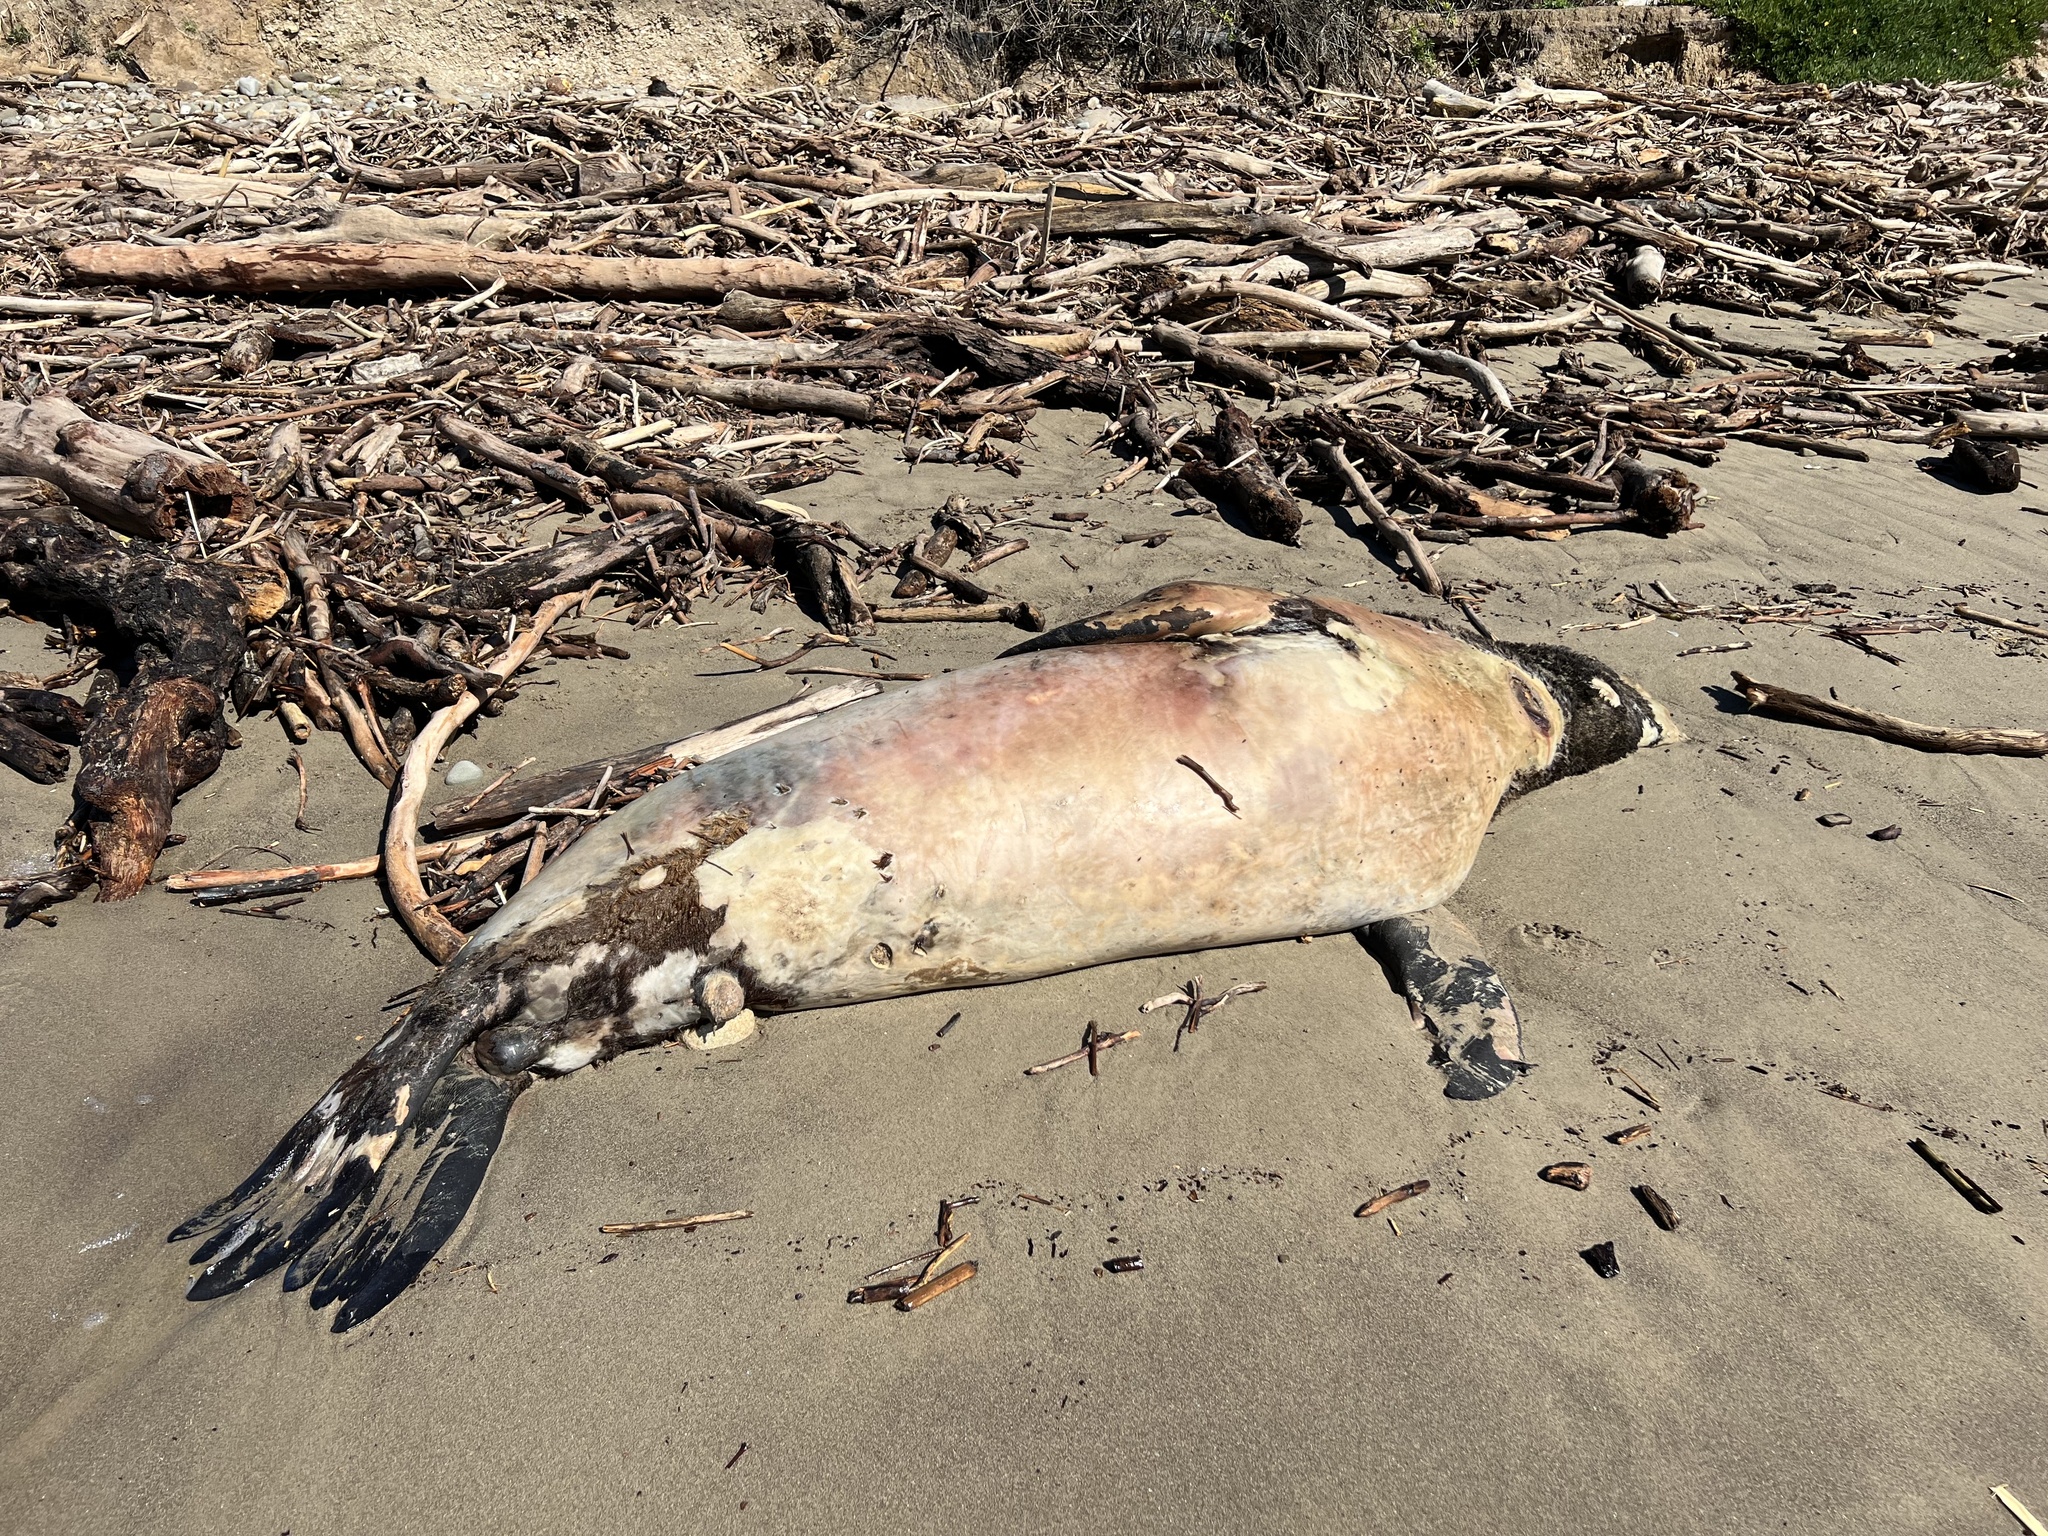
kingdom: Animalia
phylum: Chordata
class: Mammalia
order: Carnivora
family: Otariidae
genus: Zalophus
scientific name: Zalophus californianus
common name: California sea lion
